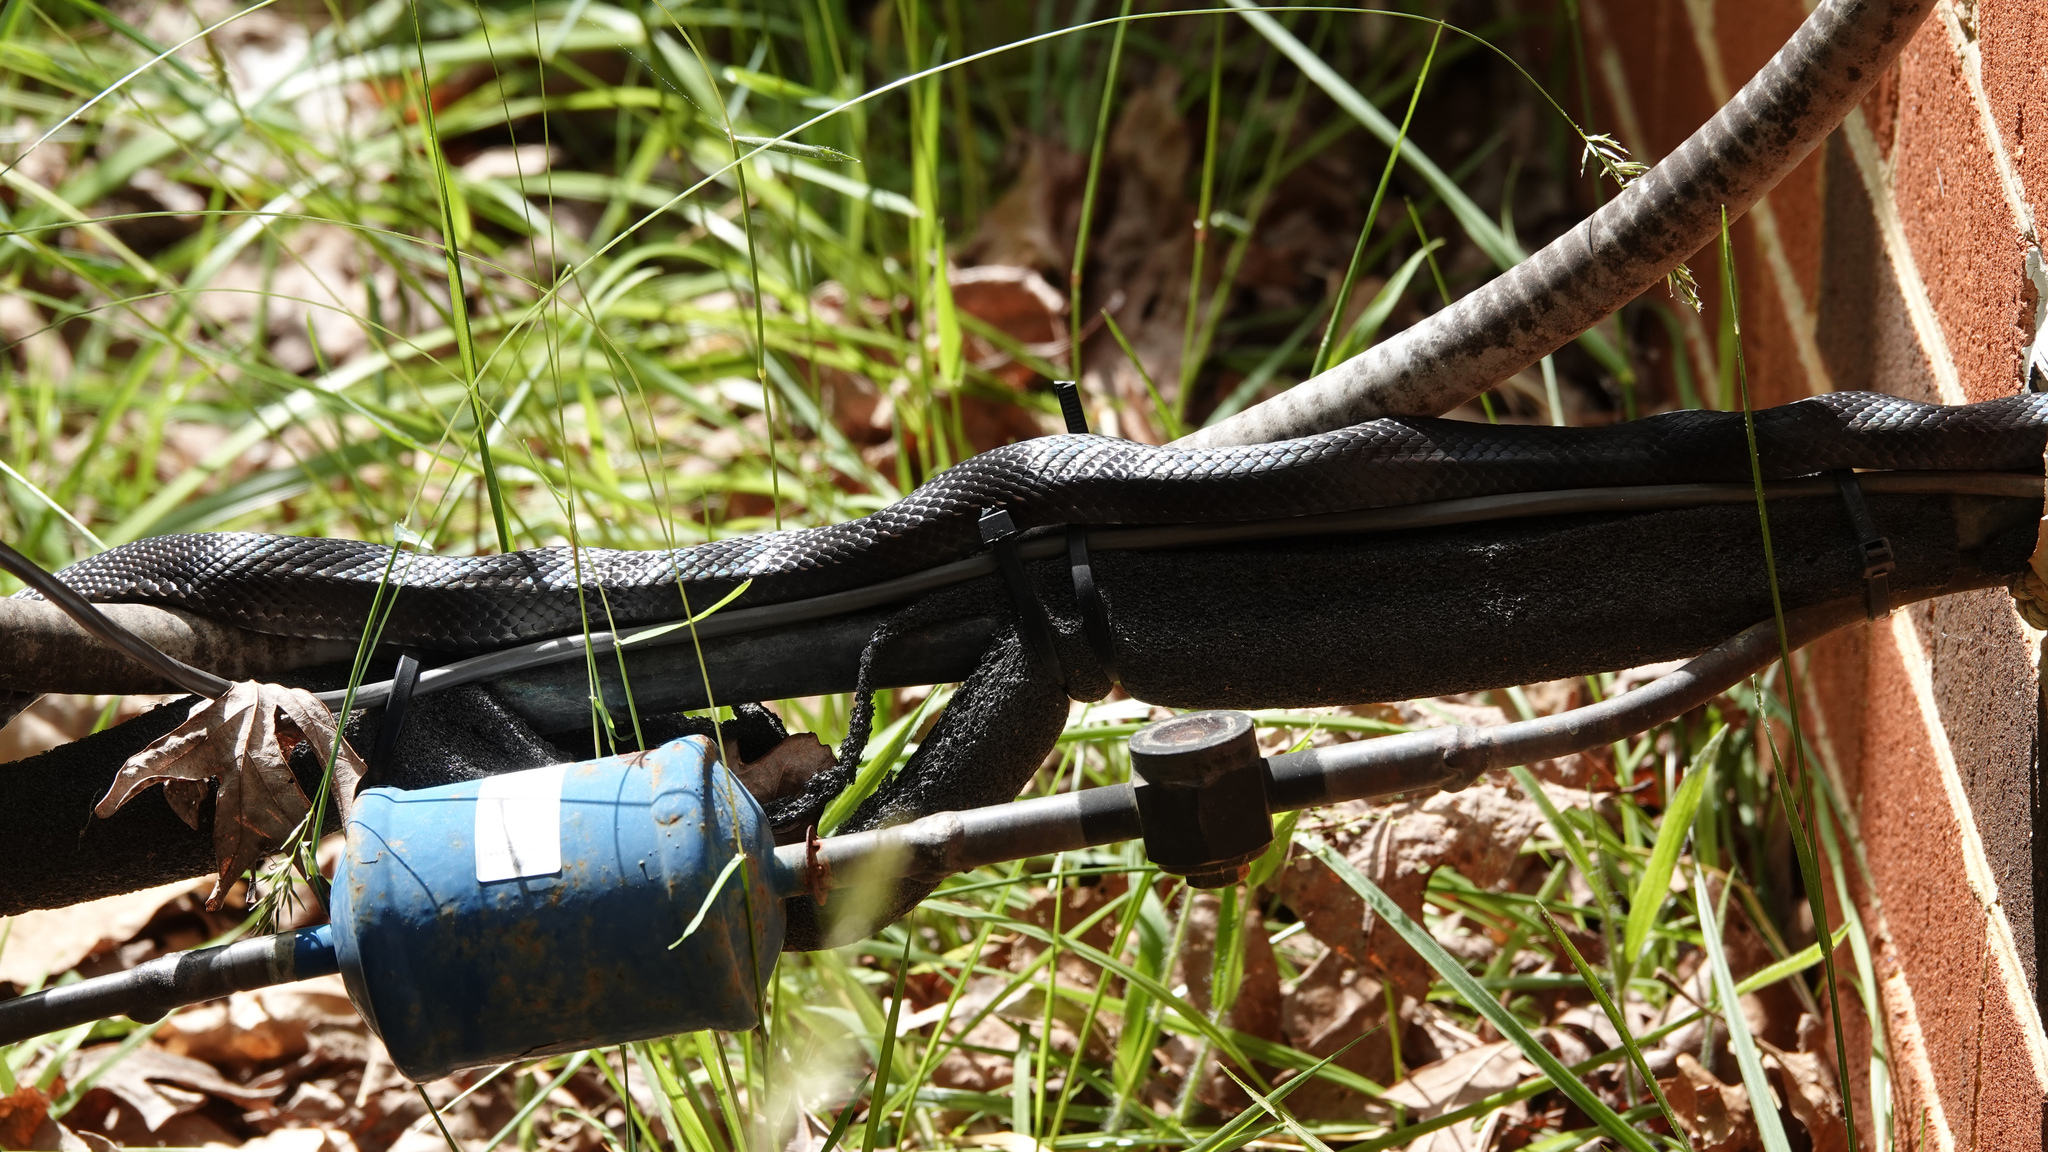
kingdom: Animalia
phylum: Chordata
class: Squamata
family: Colubridae
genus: Pantherophis
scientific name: Pantherophis
